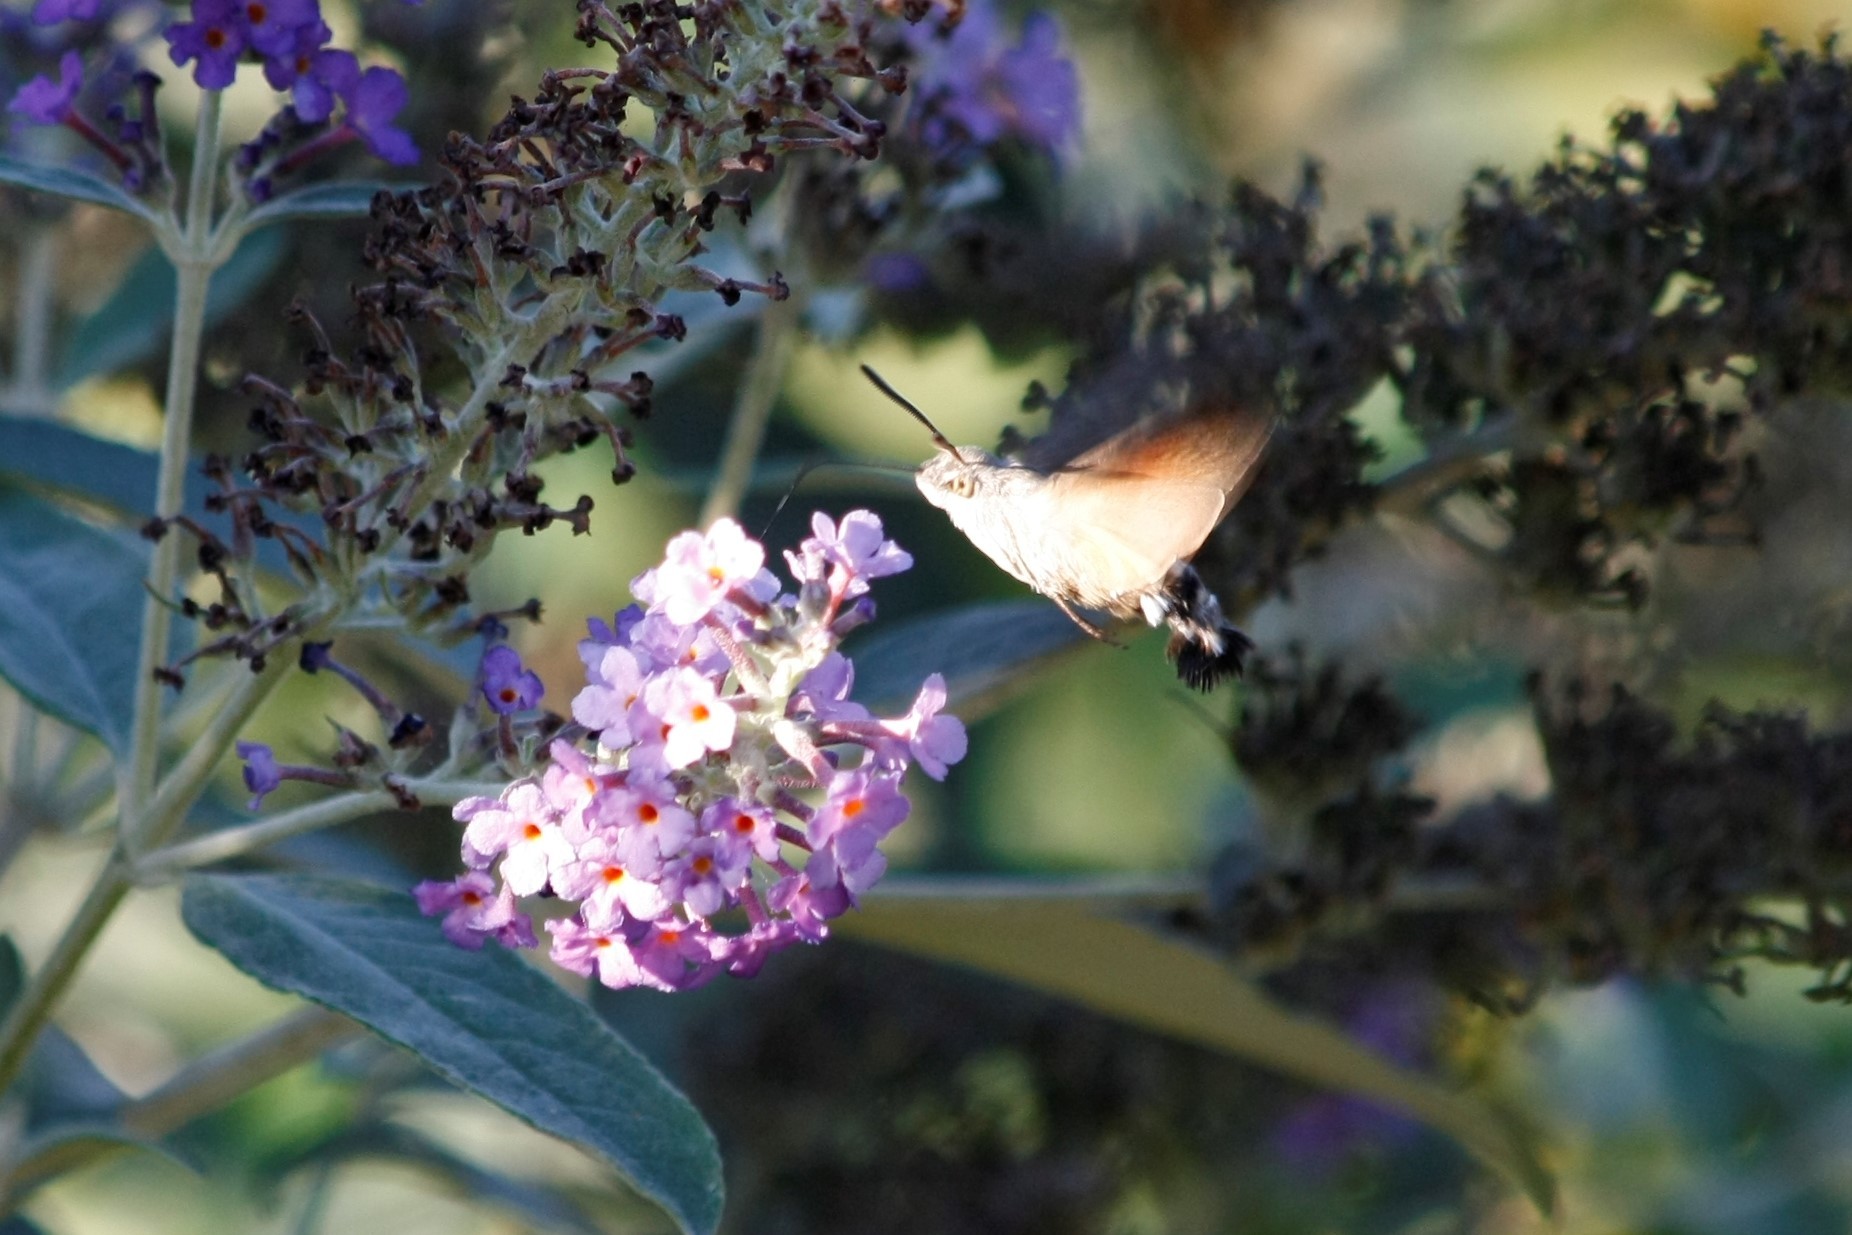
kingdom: Animalia
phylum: Arthropoda
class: Insecta
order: Lepidoptera
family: Sphingidae
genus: Macroglossum
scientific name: Macroglossum stellatarum
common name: Humming-bird hawk-moth
